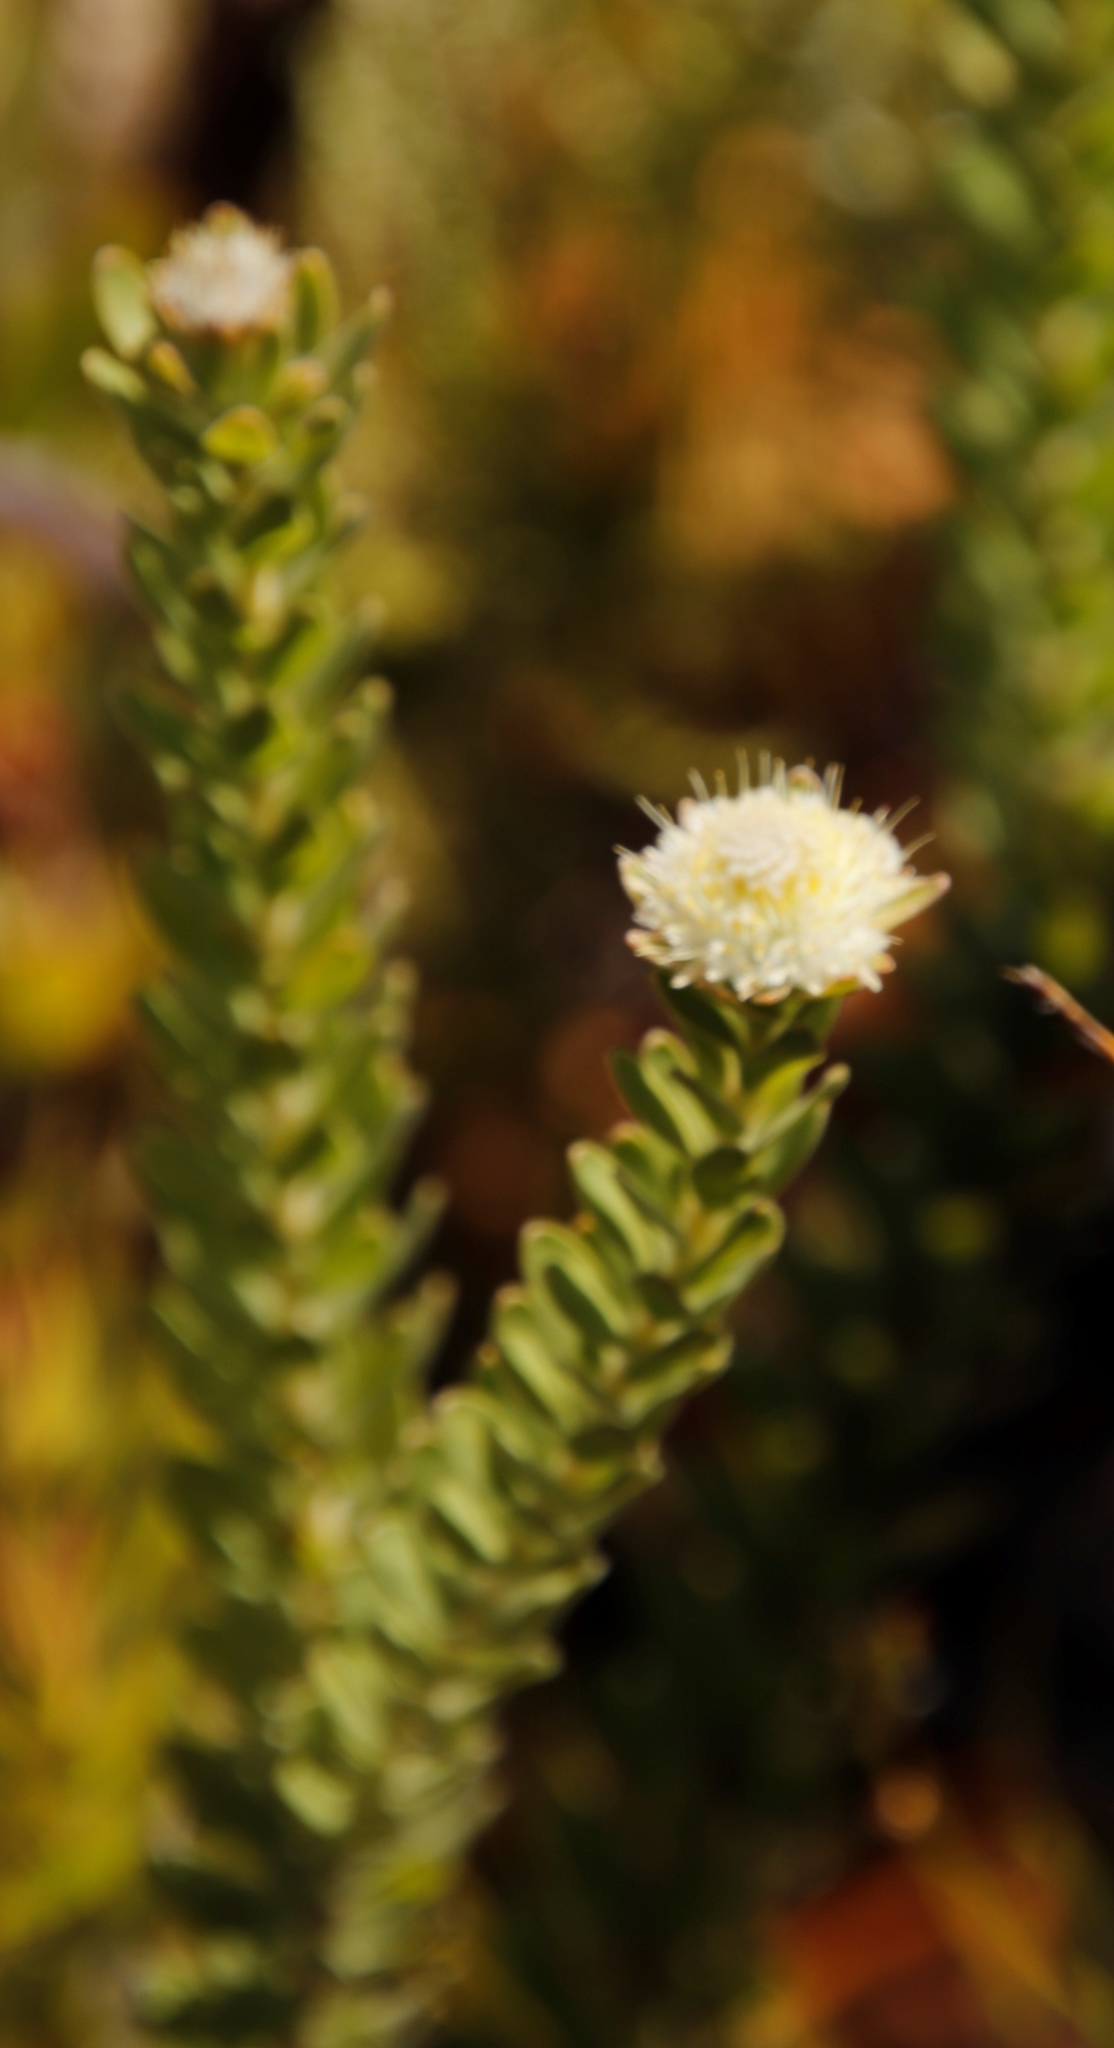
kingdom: Plantae
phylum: Tracheophyta
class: Magnoliopsida
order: Proteales
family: Proteaceae
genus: Diastella
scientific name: Diastella thymelaeoides
